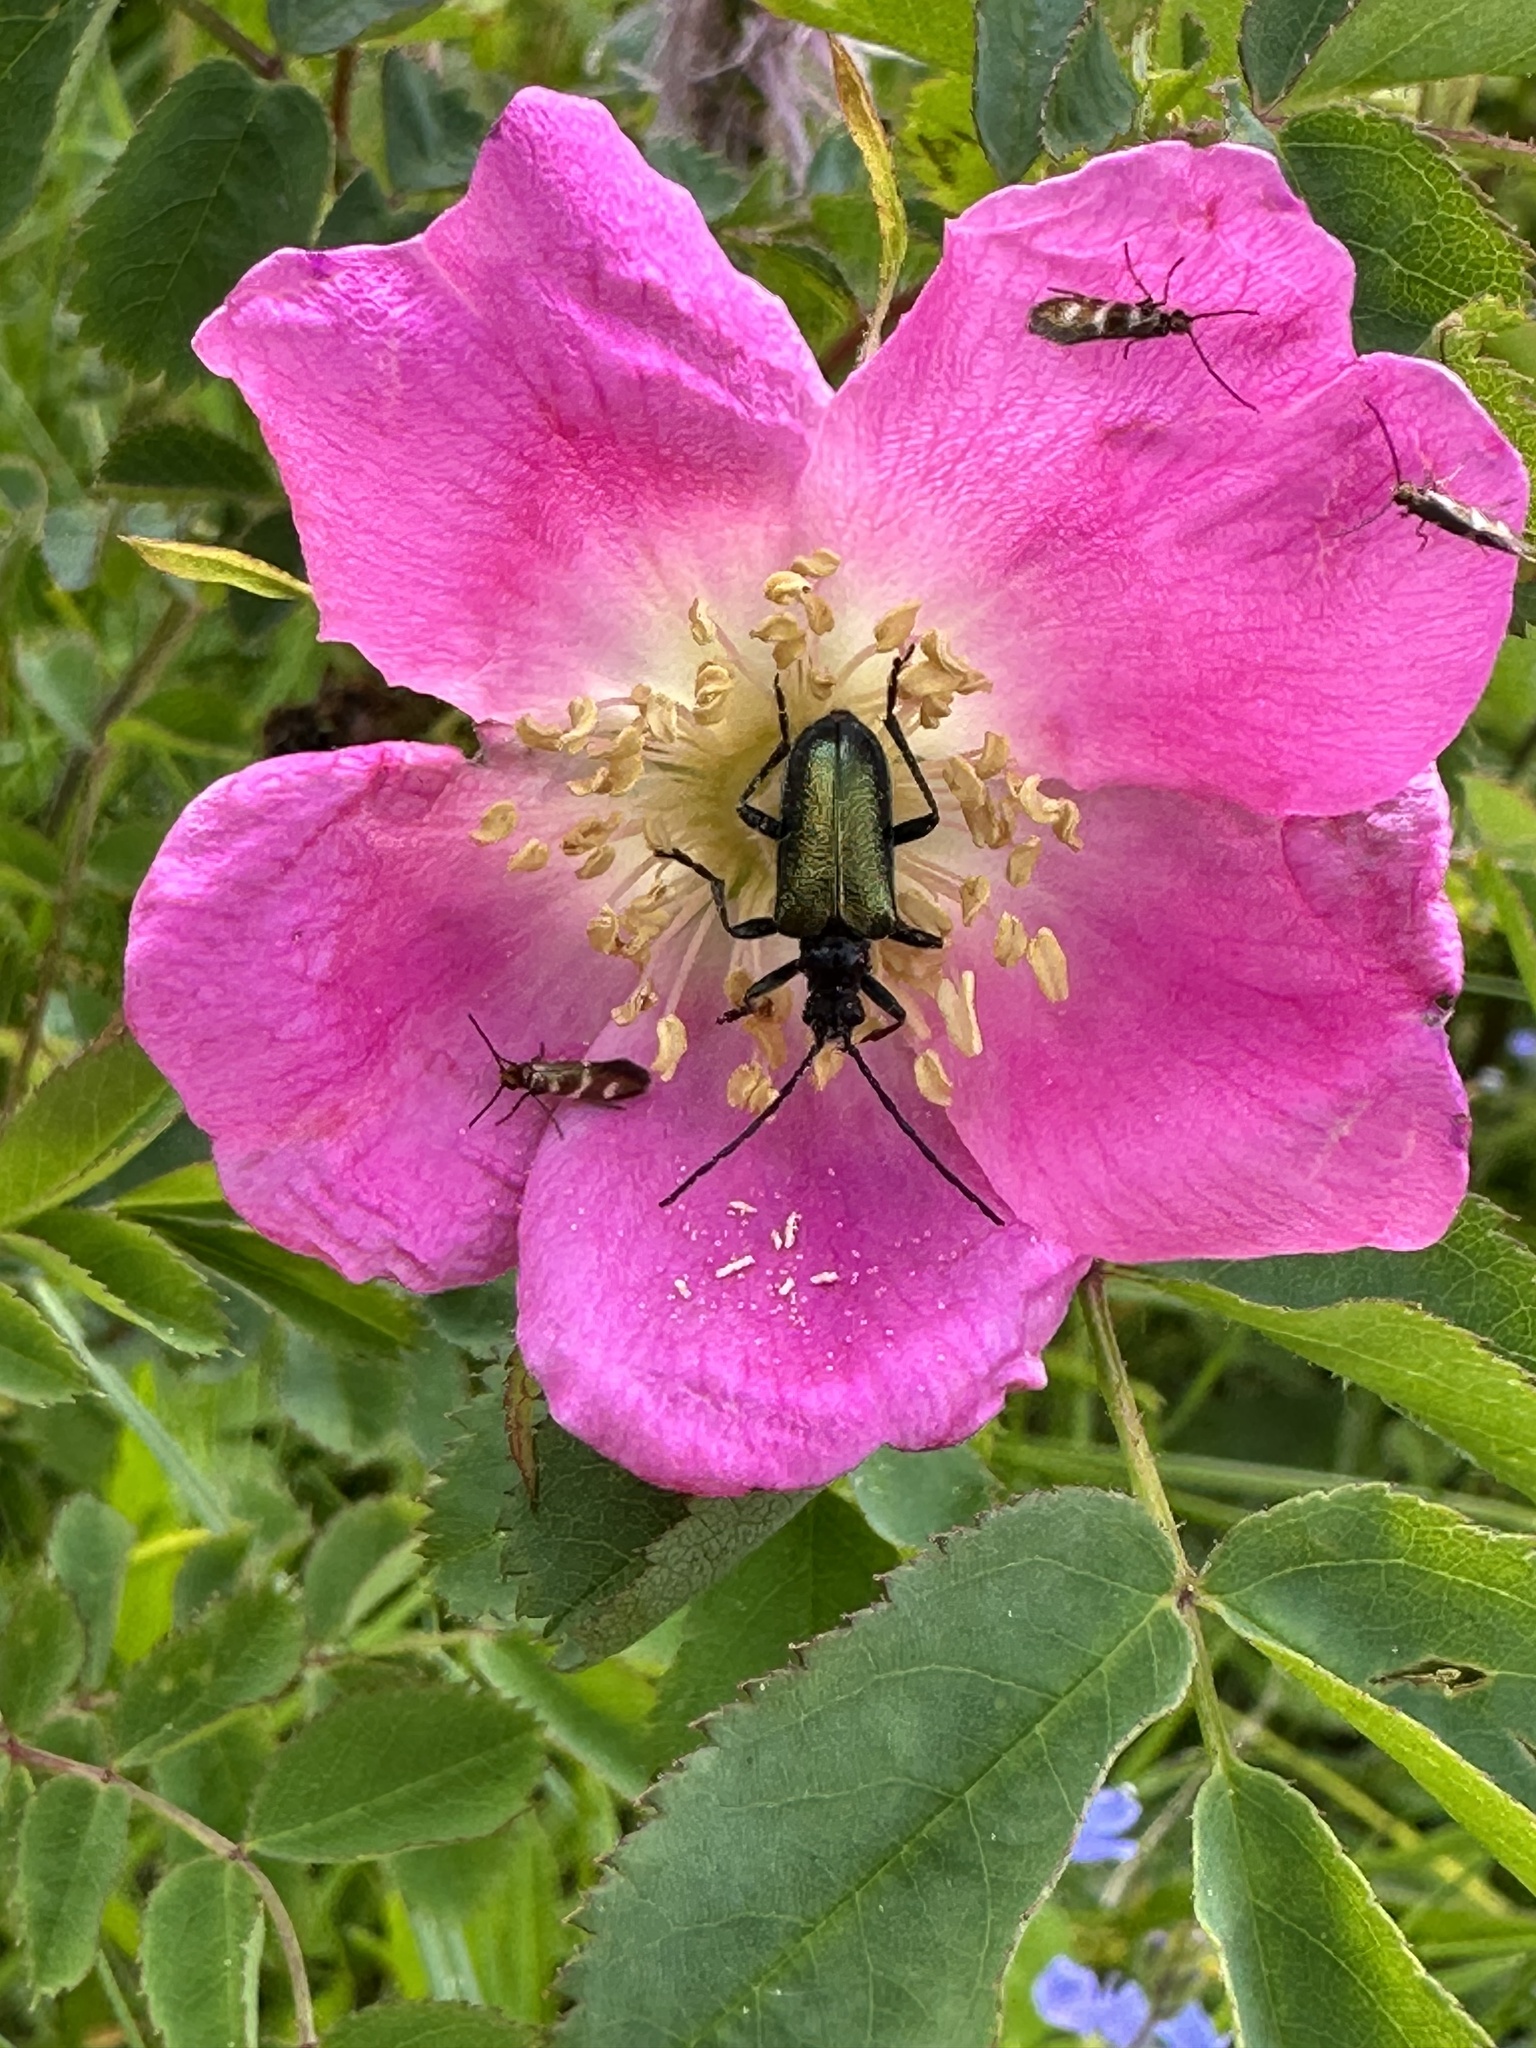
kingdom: Animalia
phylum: Arthropoda
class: Insecta
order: Coleoptera
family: Cerambycidae
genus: Gaurotes
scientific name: Gaurotes virginea
